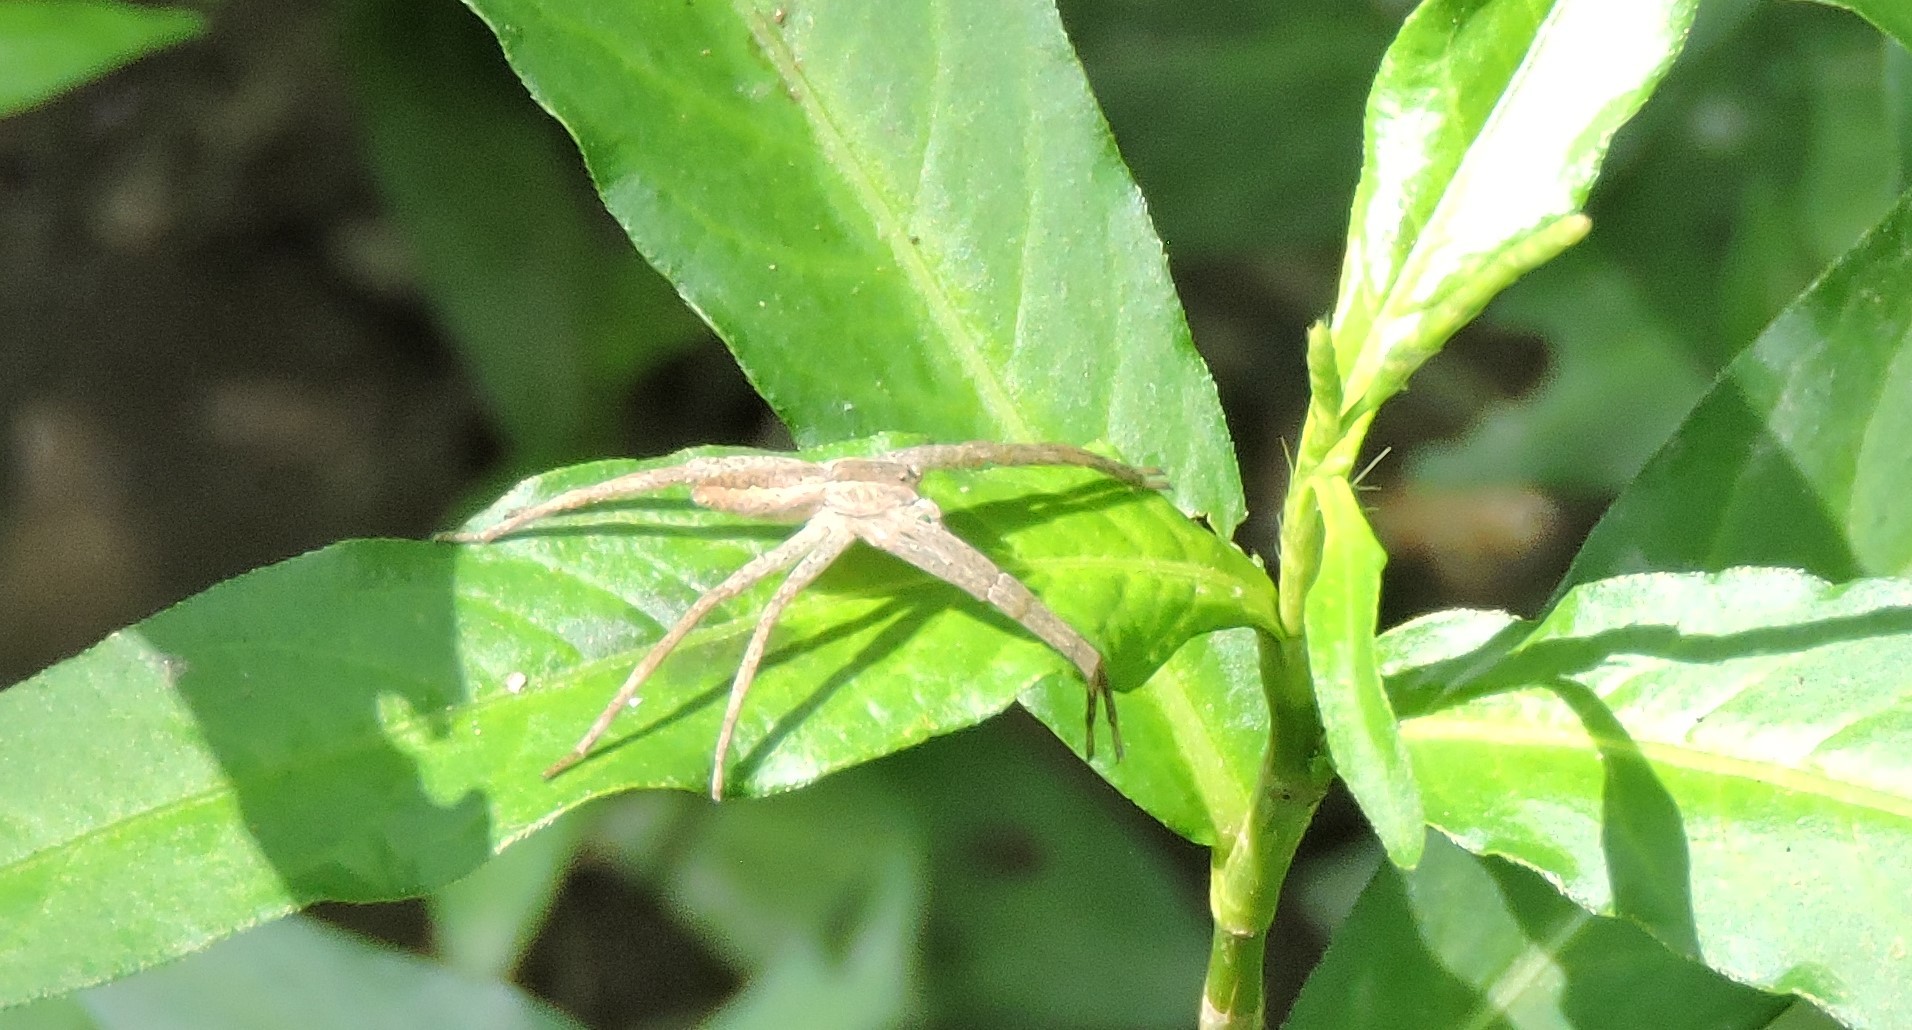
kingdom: Animalia
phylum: Arthropoda
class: Arachnida
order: Araneae
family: Pisauridae
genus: Pisaurina
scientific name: Pisaurina mira
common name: American nursery web spider
